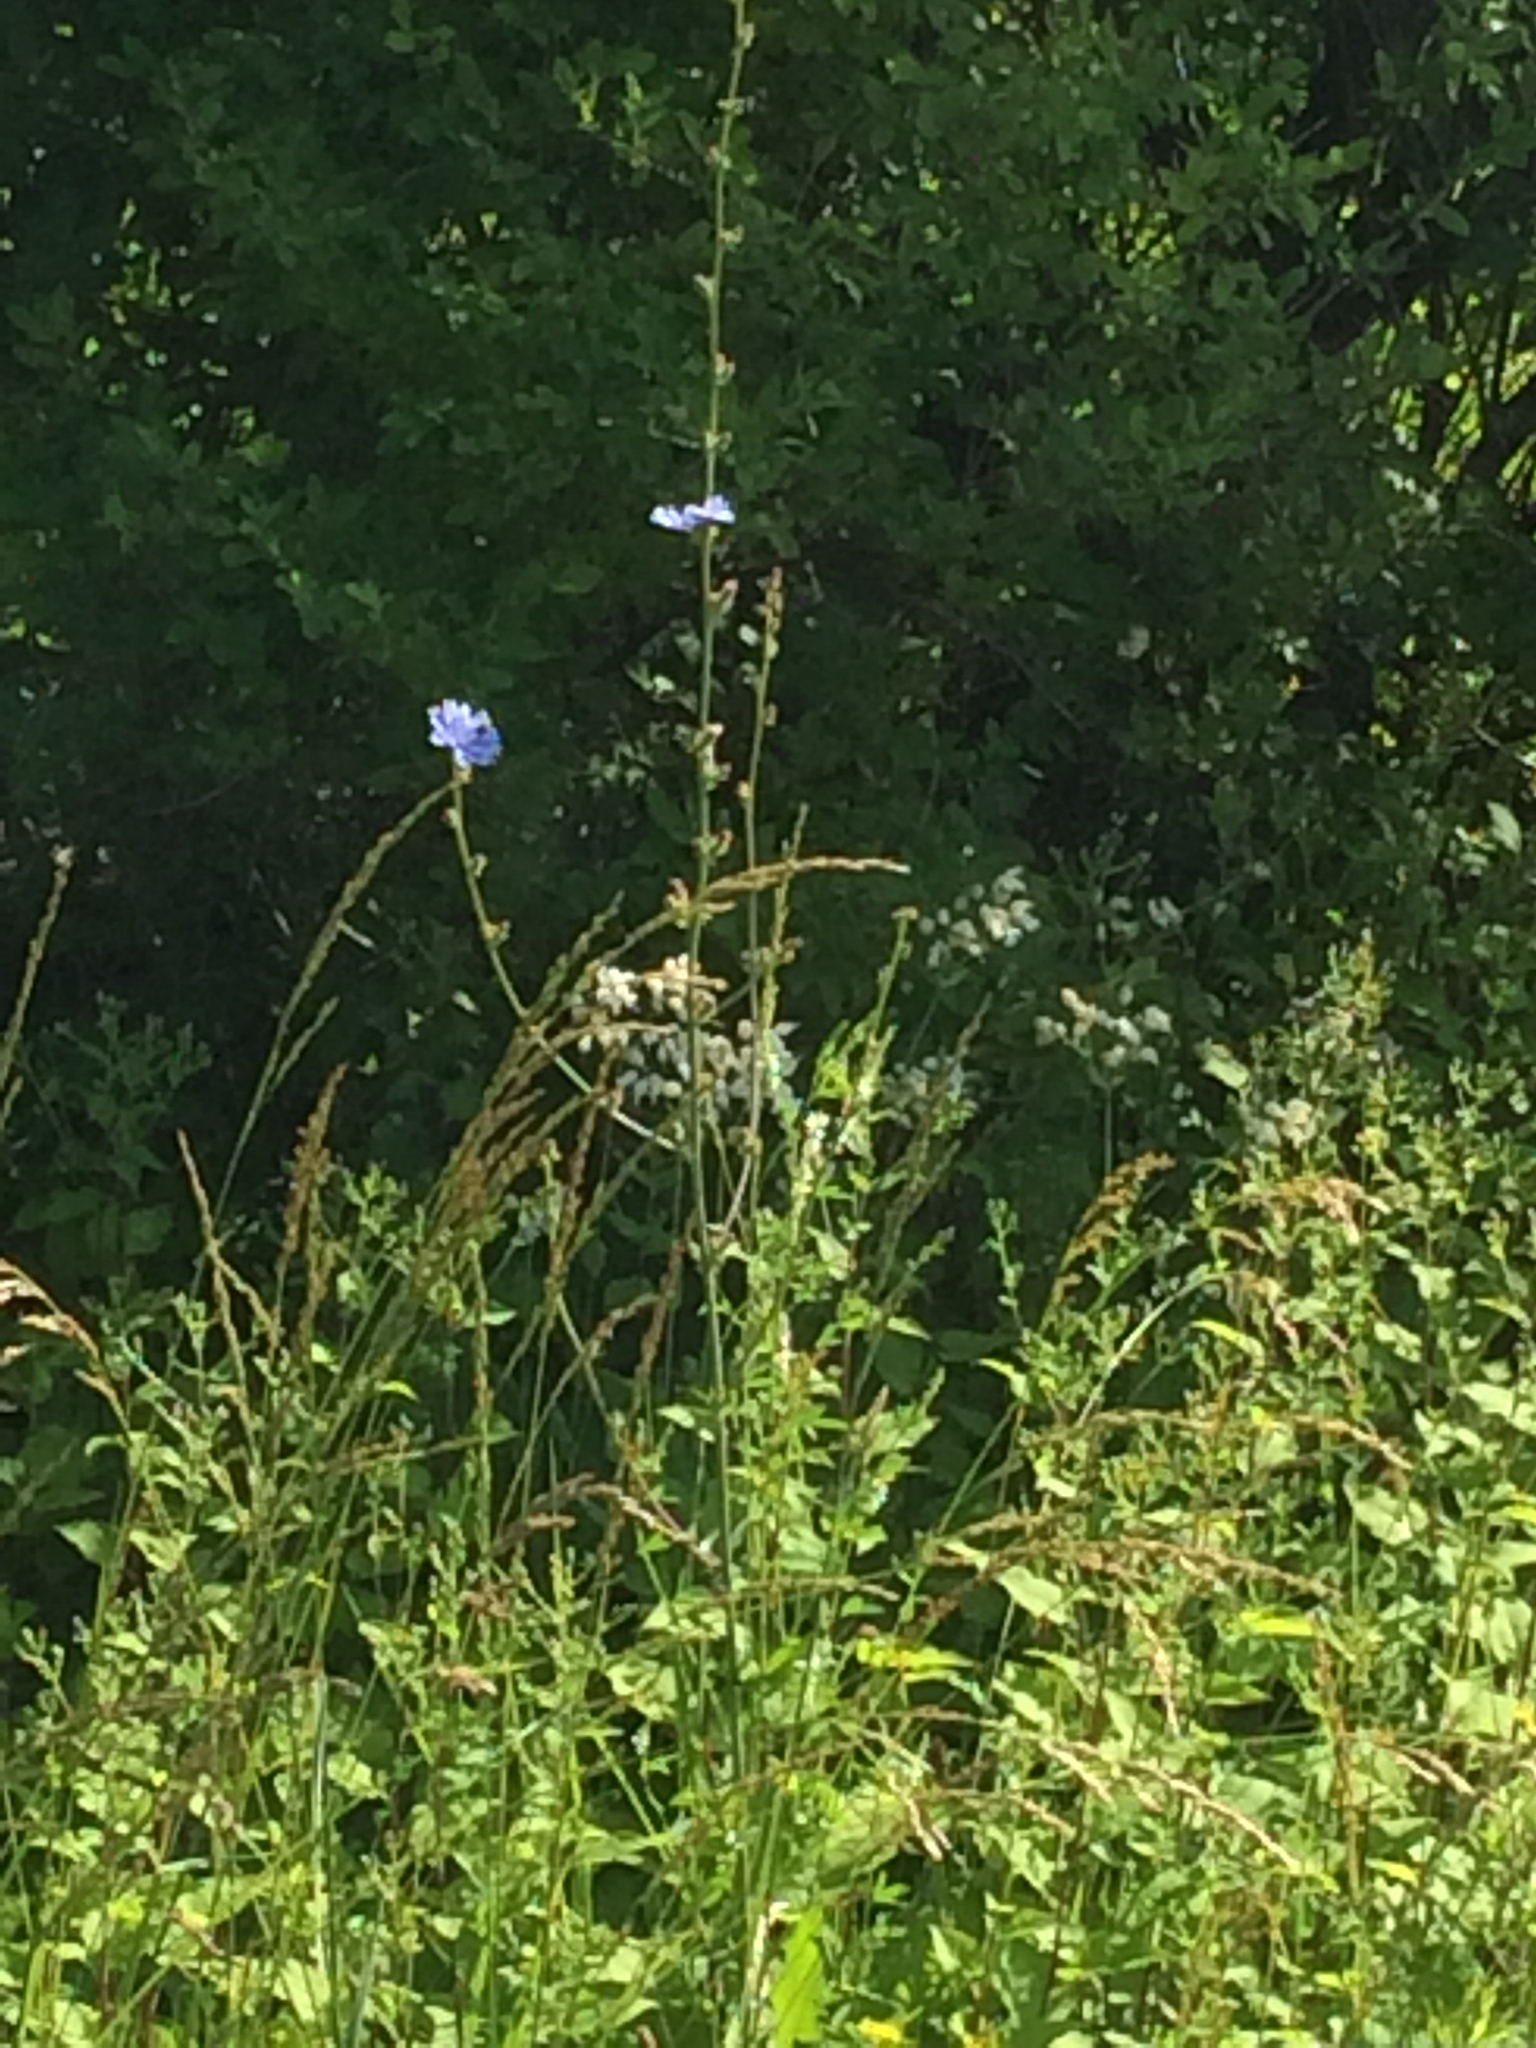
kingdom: Plantae
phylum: Tracheophyta
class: Magnoliopsida
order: Asterales
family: Asteraceae
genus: Cichorium
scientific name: Cichorium intybus
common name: Chicory
